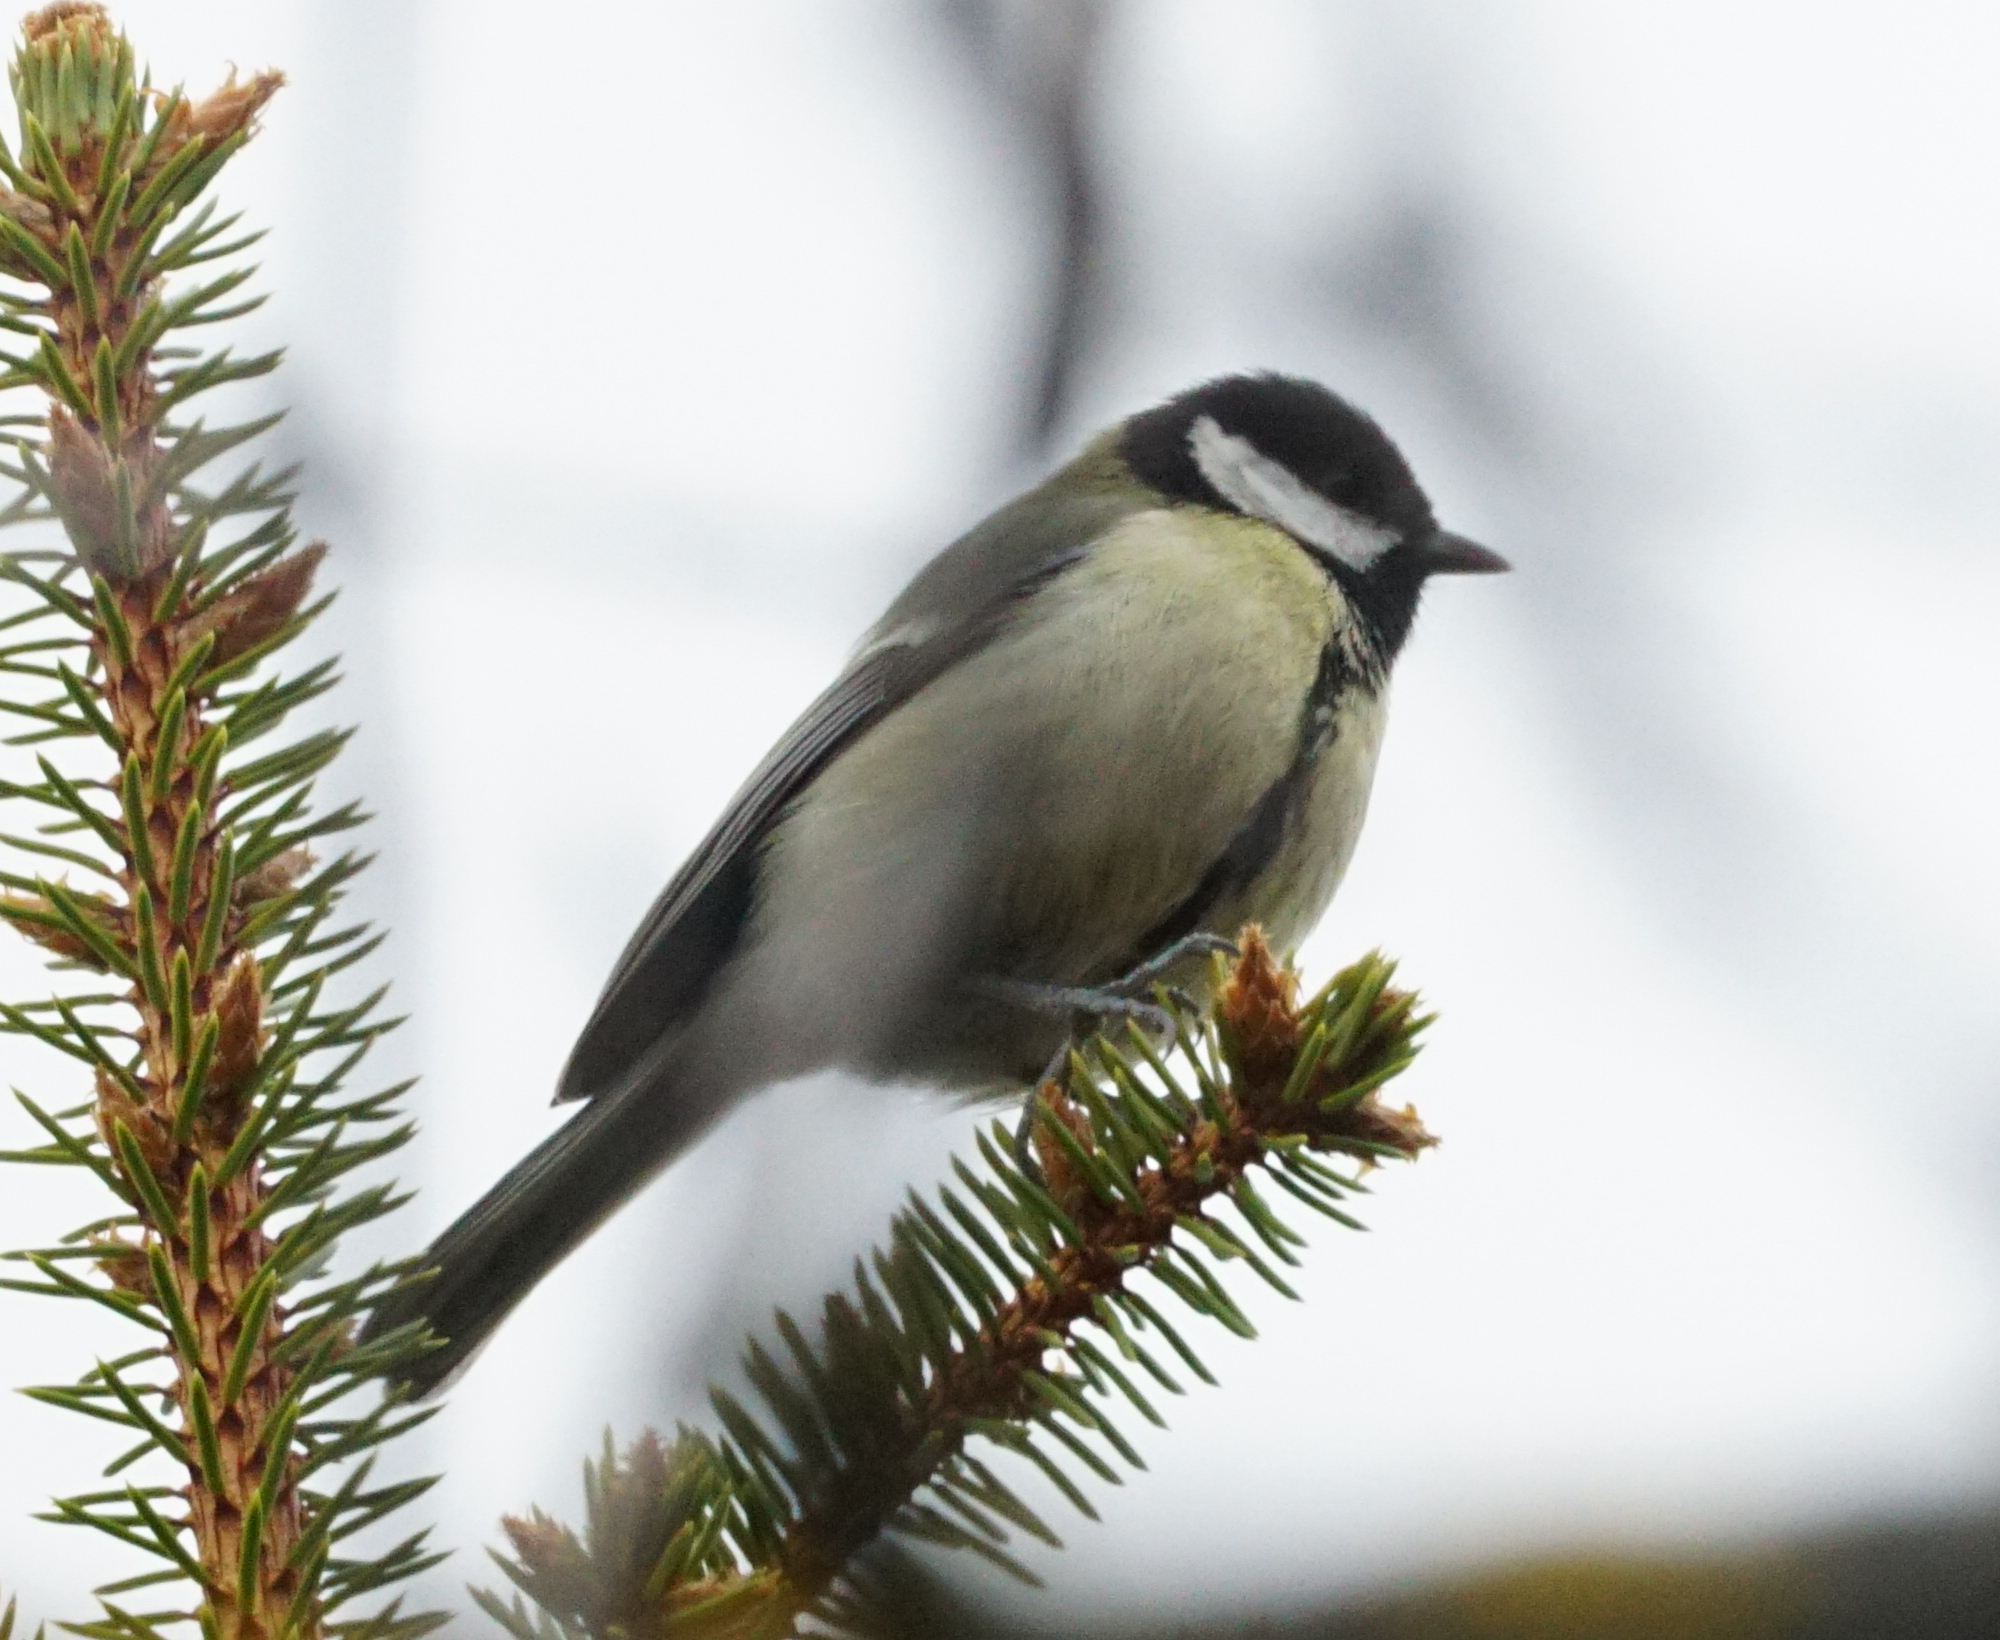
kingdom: Animalia
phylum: Chordata
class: Aves
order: Passeriformes
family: Paridae
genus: Parus
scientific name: Parus major
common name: Great tit
